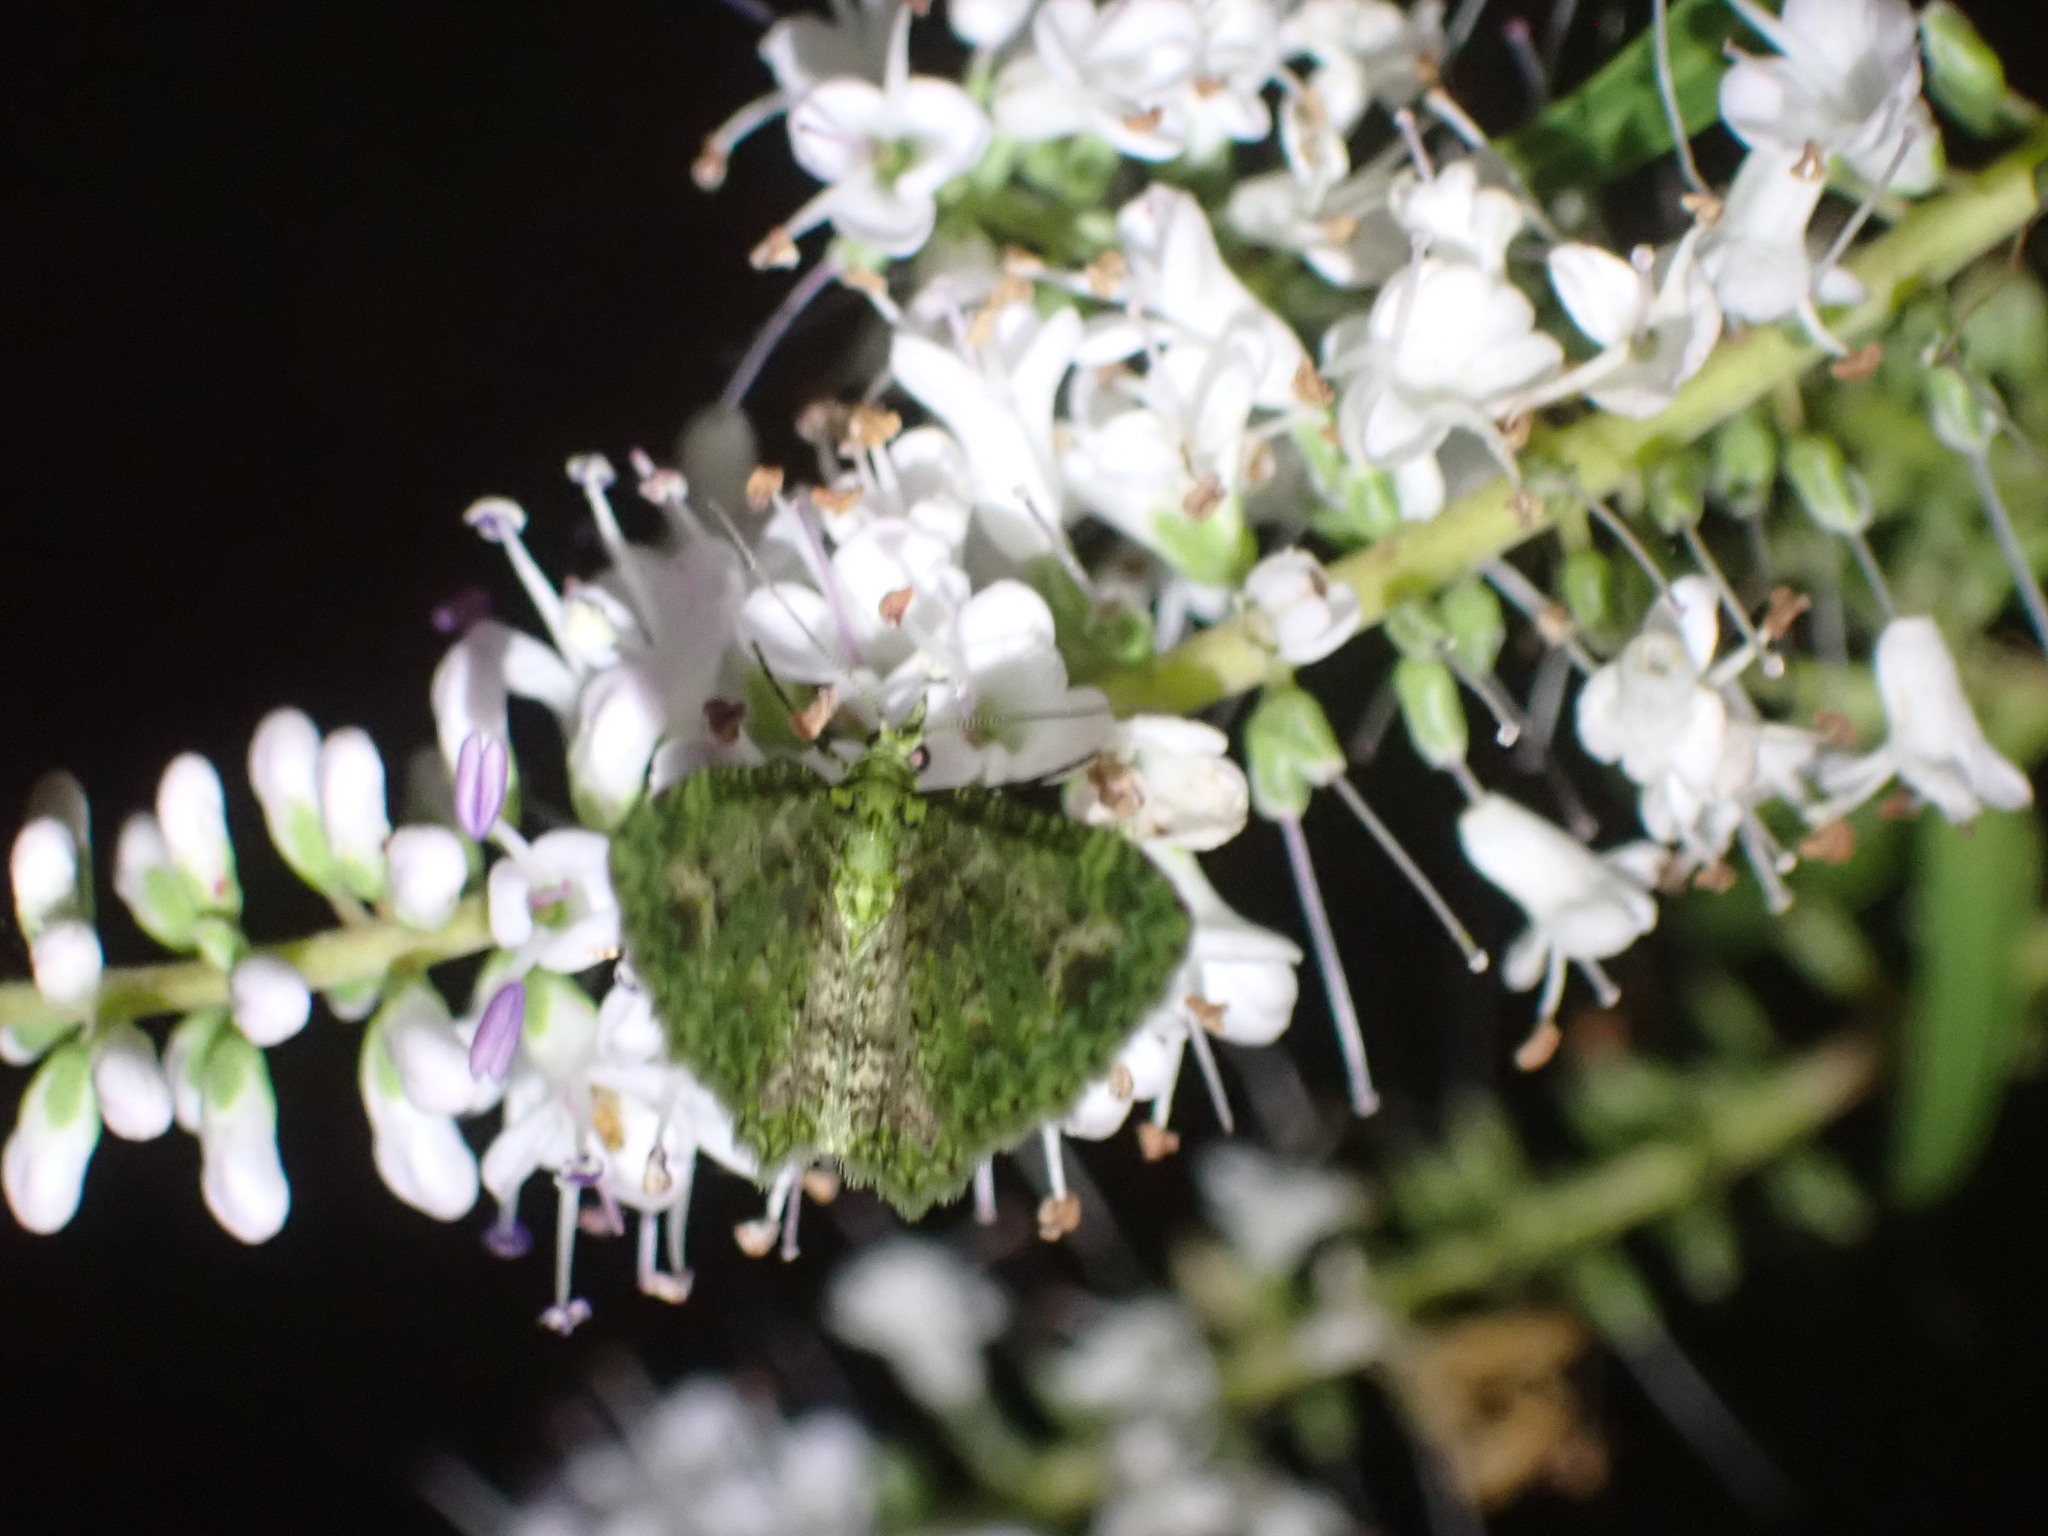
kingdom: Animalia
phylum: Arthropoda
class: Insecta
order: Lepidoptera
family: Geometridae
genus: Pasiphila
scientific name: Pasiphila muscosata
